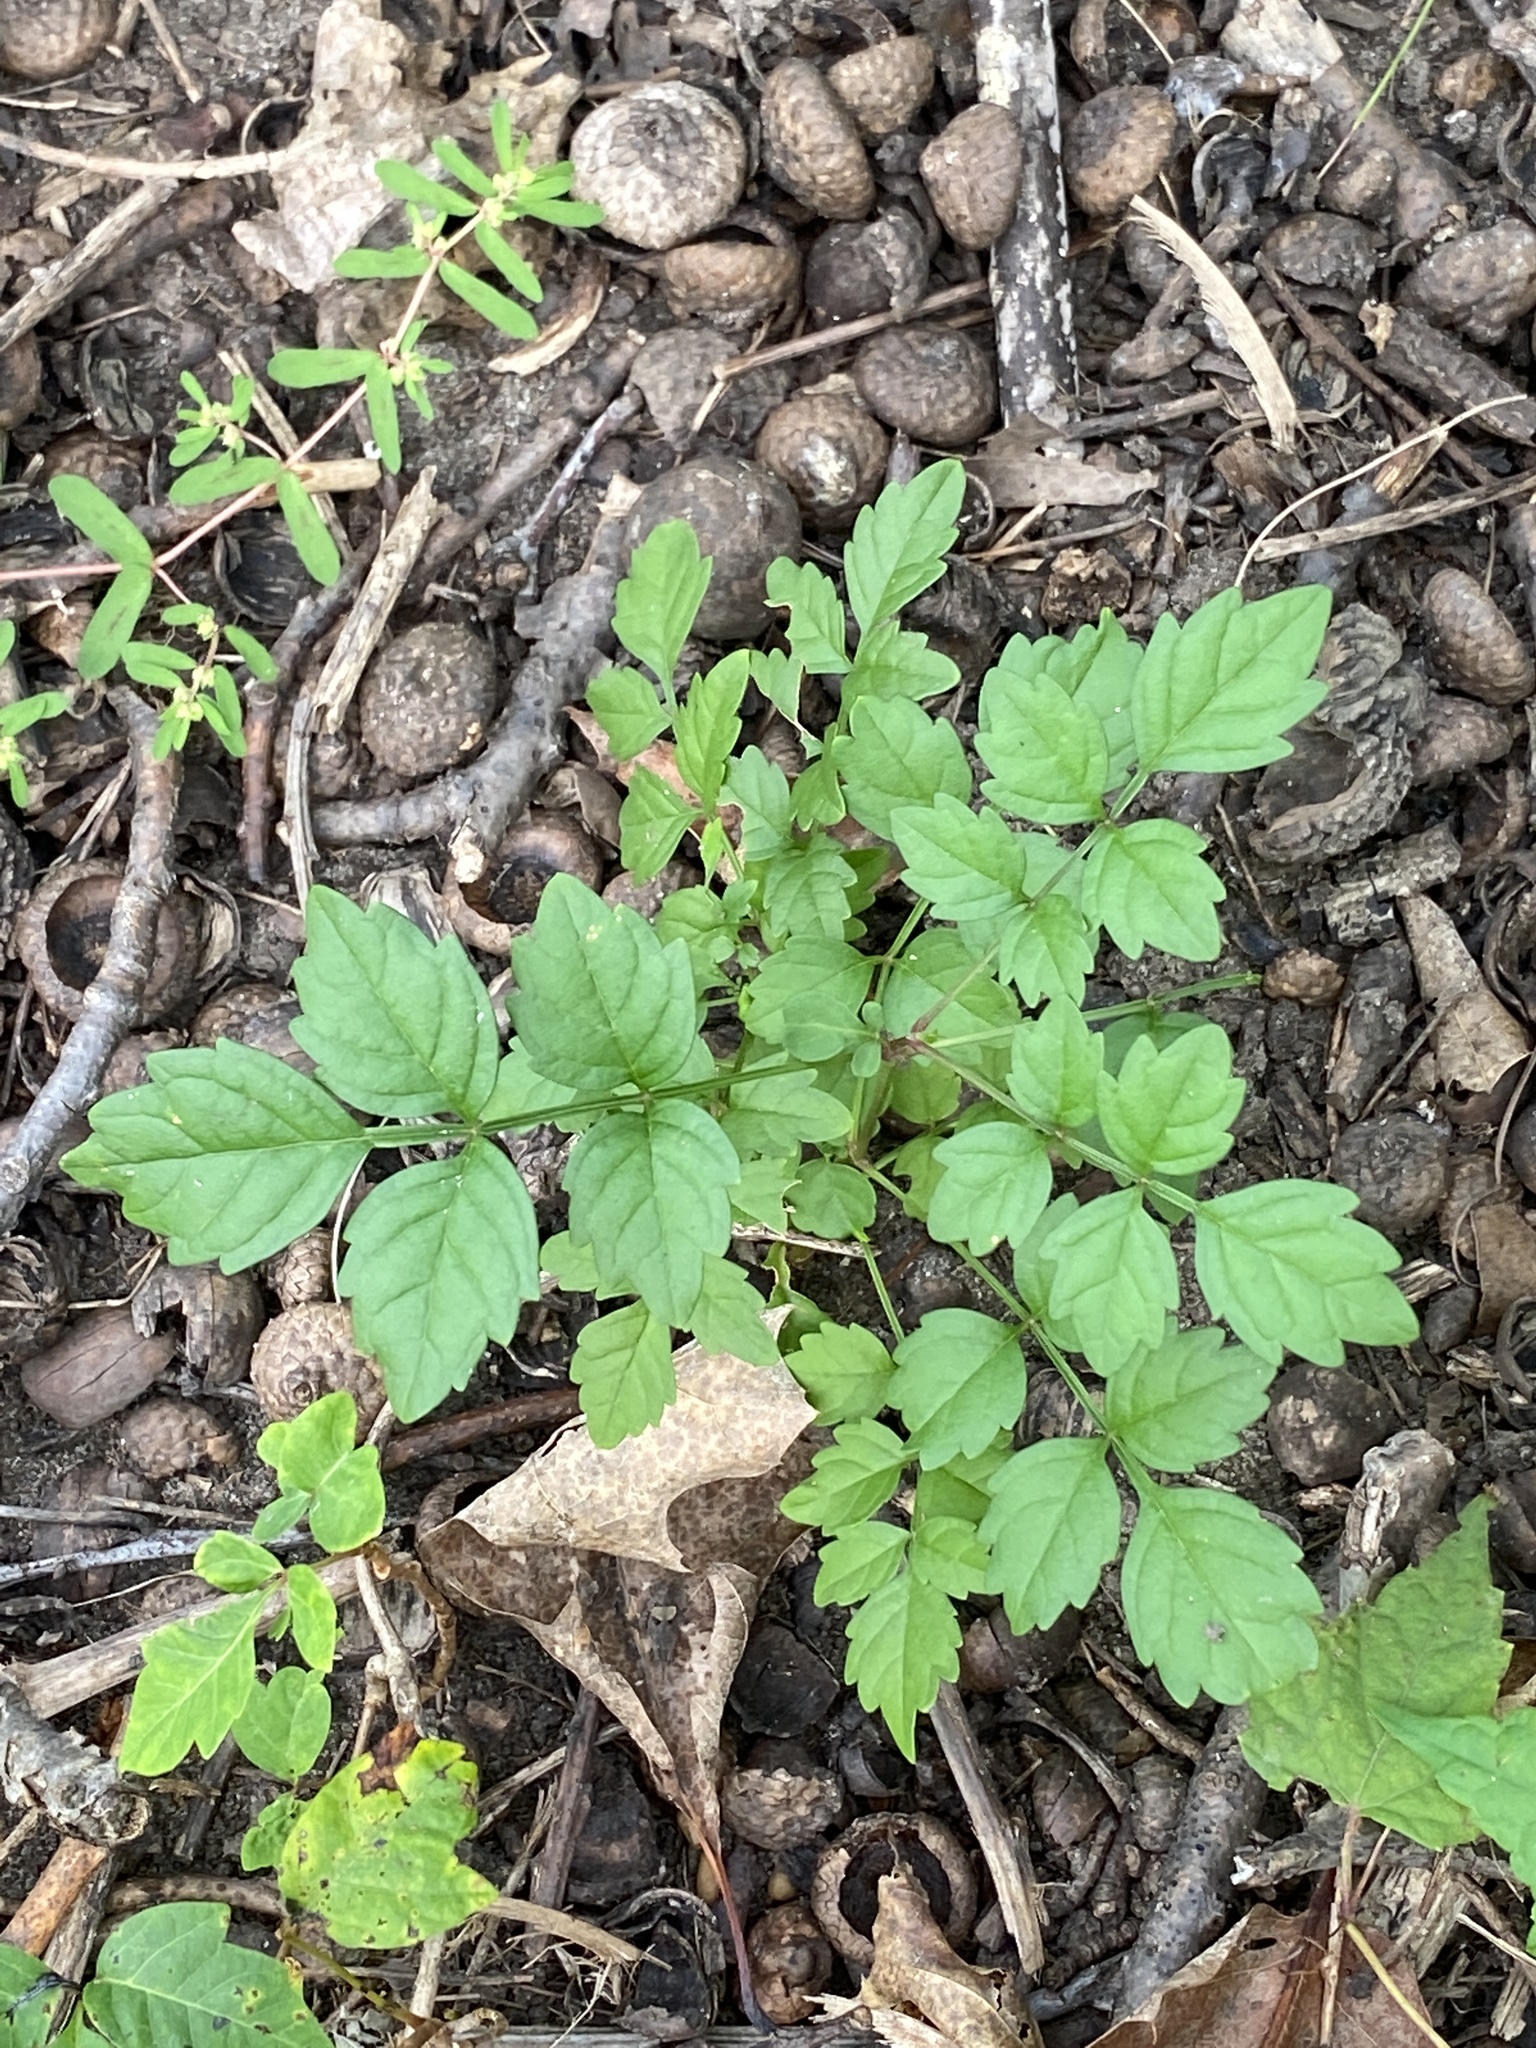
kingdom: Plantae
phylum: Tracheophyta
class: Magnoliopsida
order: Lamiales
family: Bignoniaceae
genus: Campsis
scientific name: Campsis radicans
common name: Trumpet-creeper
